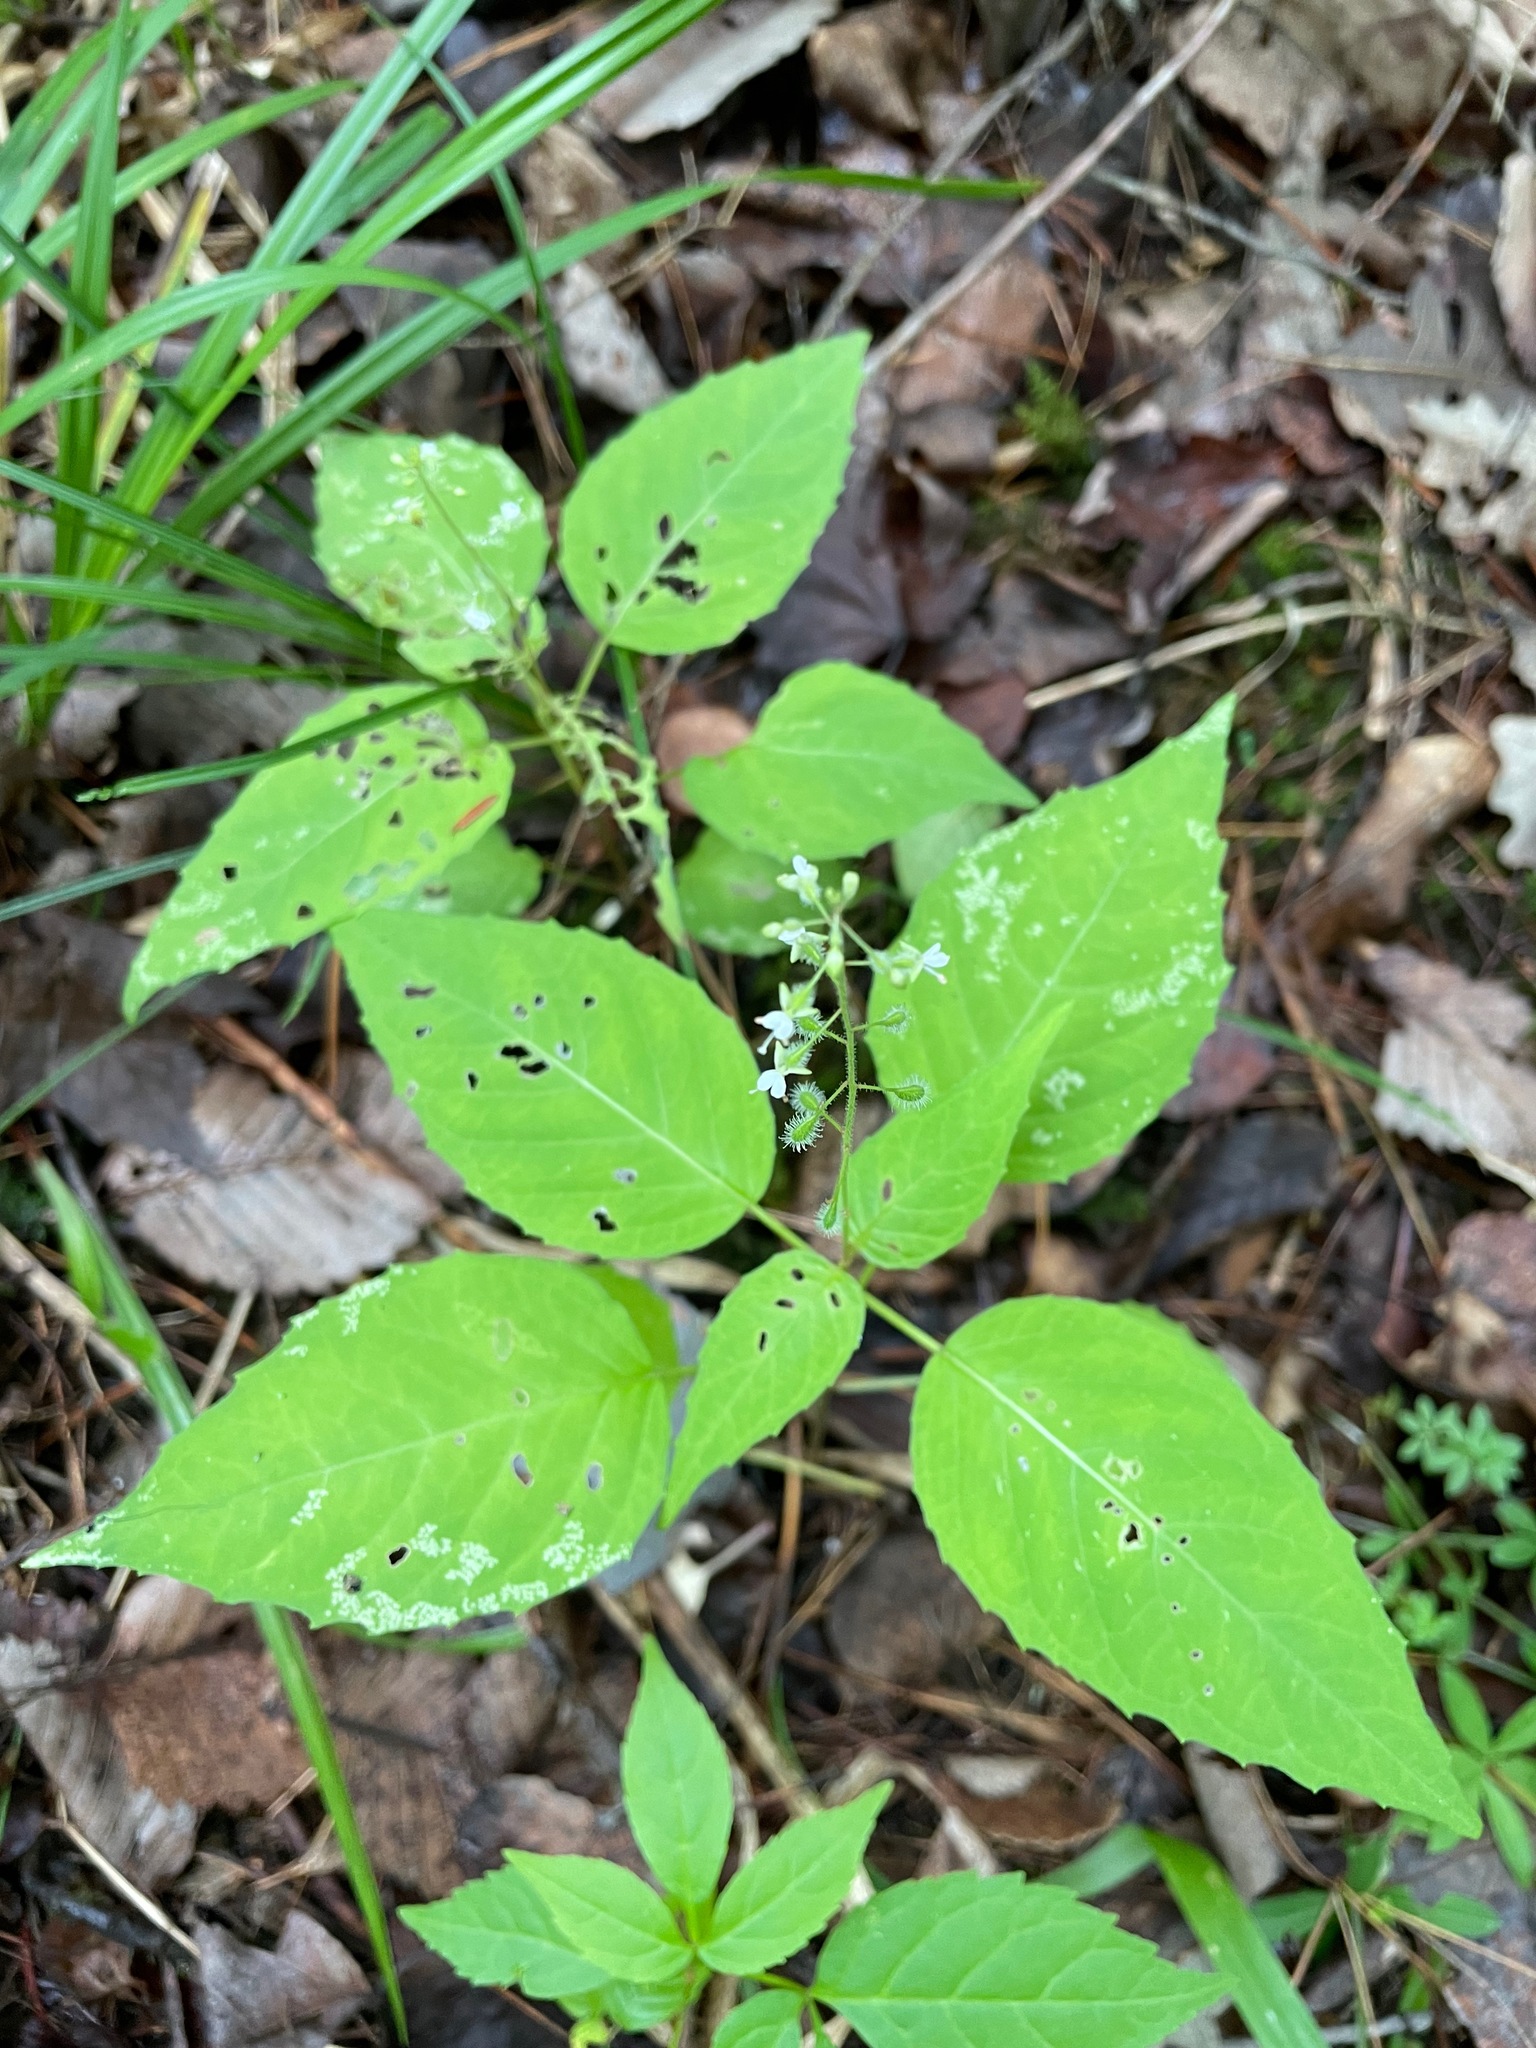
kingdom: Plantae
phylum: Tracheophyta
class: Magnoliopsida
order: Myrtales
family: Onagraceae
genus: Circaea
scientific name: Circaea canadensis
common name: Broad-leaved enchanter's nightshade
